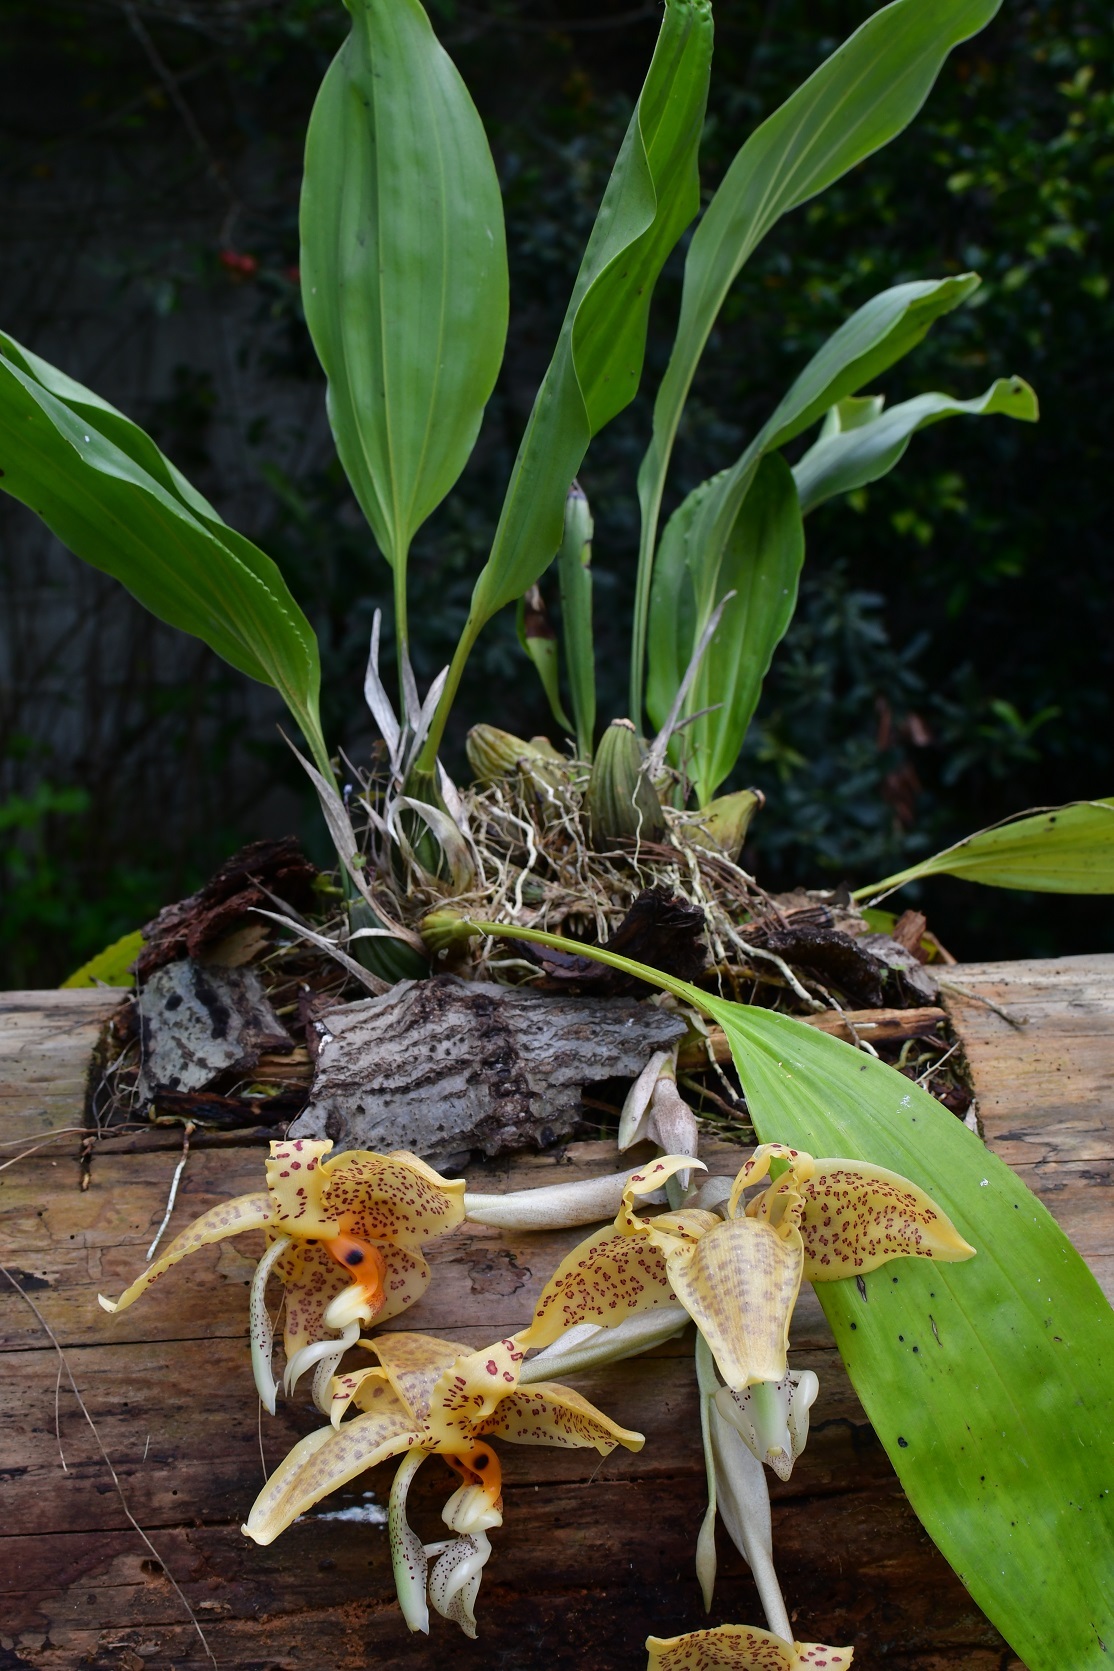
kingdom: Plantae
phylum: Tracheophyta
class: Liliopsida
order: Asparagales
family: Orchidaceae
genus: Stanhopea
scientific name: Stanhopea oculata
